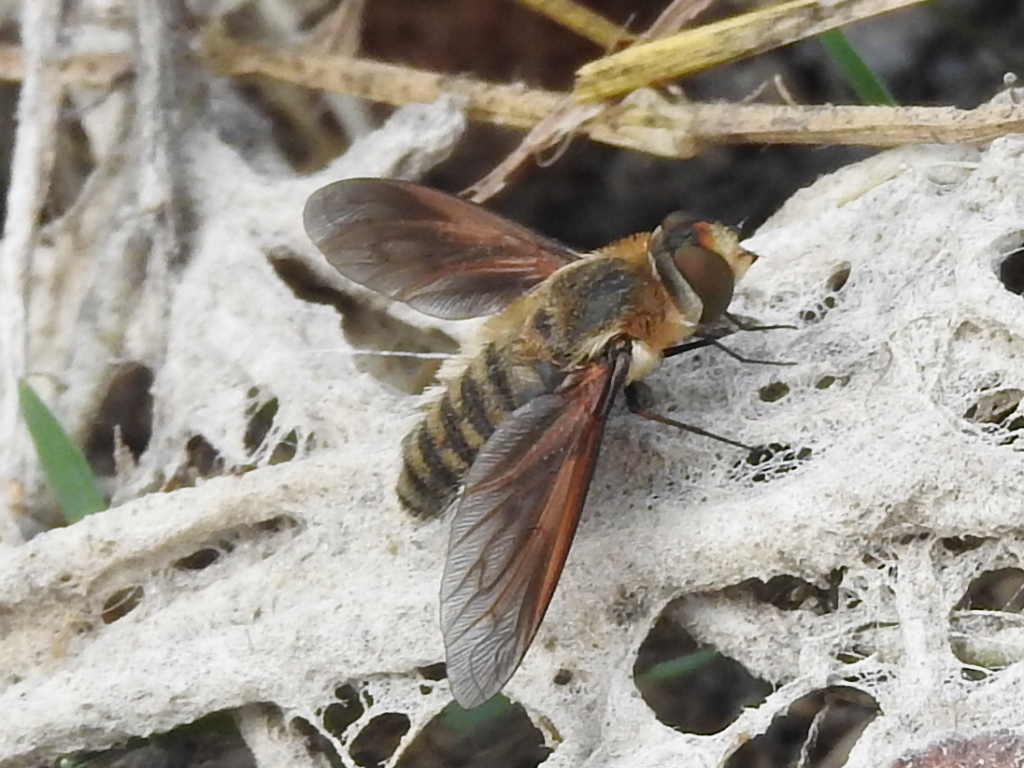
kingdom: Animalia
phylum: Arthropoda
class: Insecta
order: Diptera
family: Bombyliidae
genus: Poecilanthrax
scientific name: Poecilanthrax lucifer
